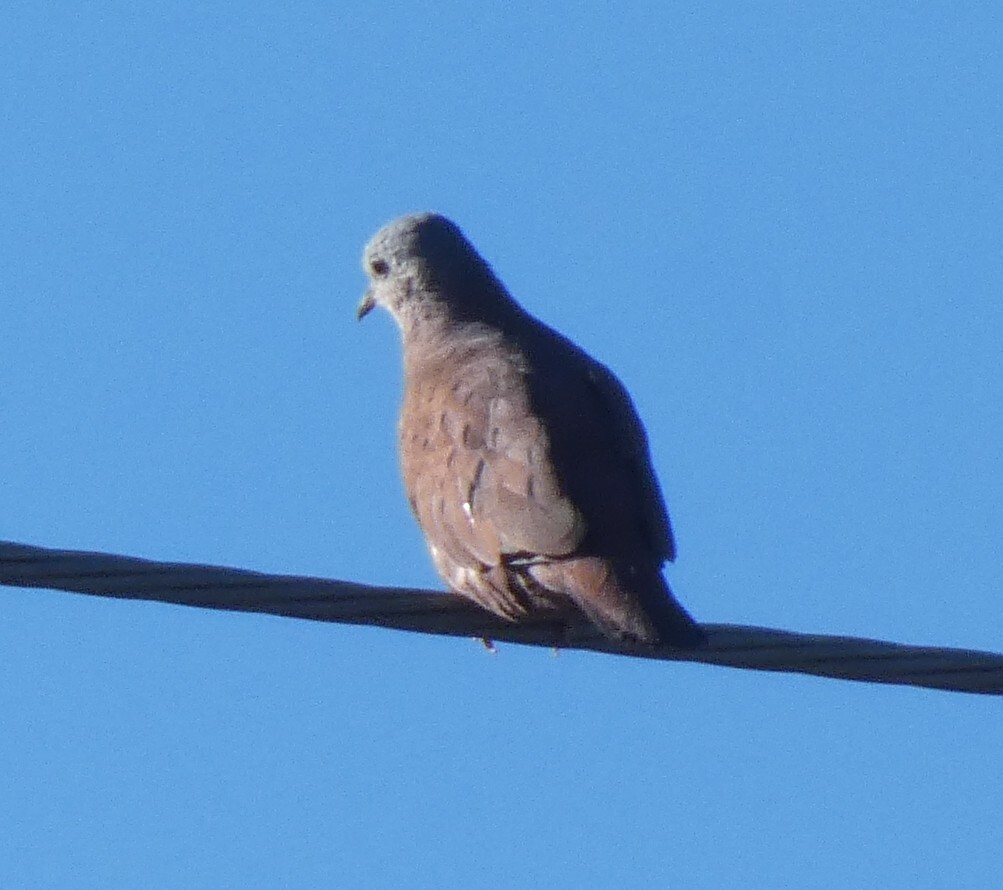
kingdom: Animalia
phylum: Chordata
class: Aves
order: Columbiformes
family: Columbidae
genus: Columbina
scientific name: Columbina talpacoti
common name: Ruddy ground dove
